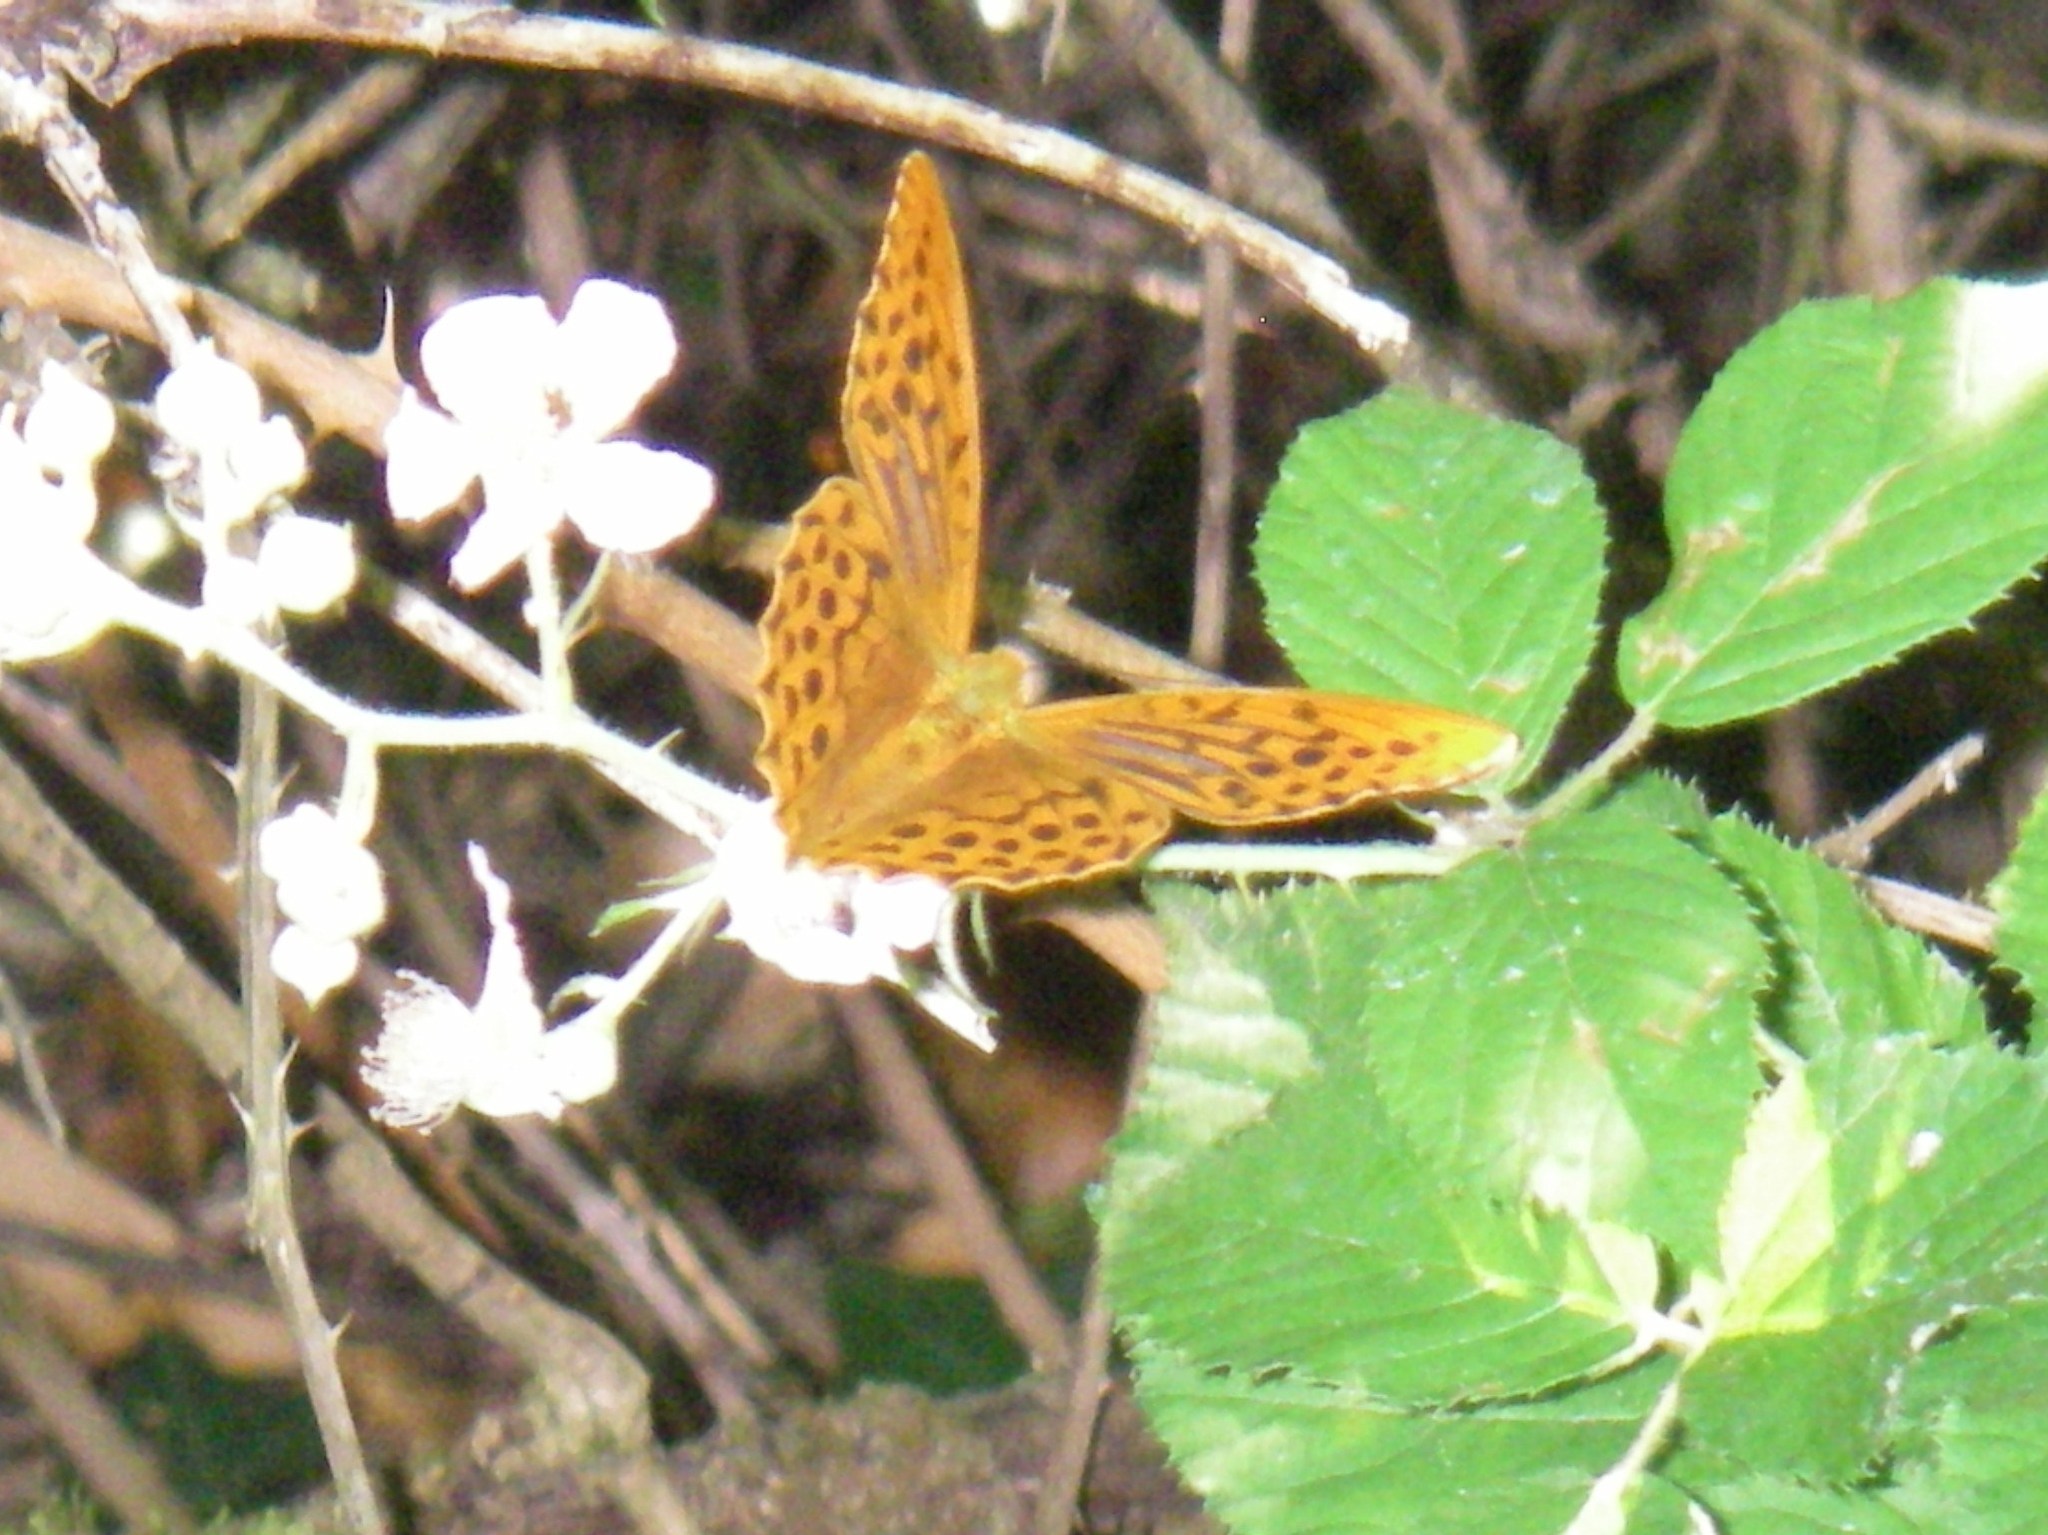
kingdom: Animalia
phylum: Arthropoda
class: Insecta
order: Lepidoptera
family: Nymphalidae
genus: Argynnis
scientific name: Argynnis paphia
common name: Silver-washed fritillary
